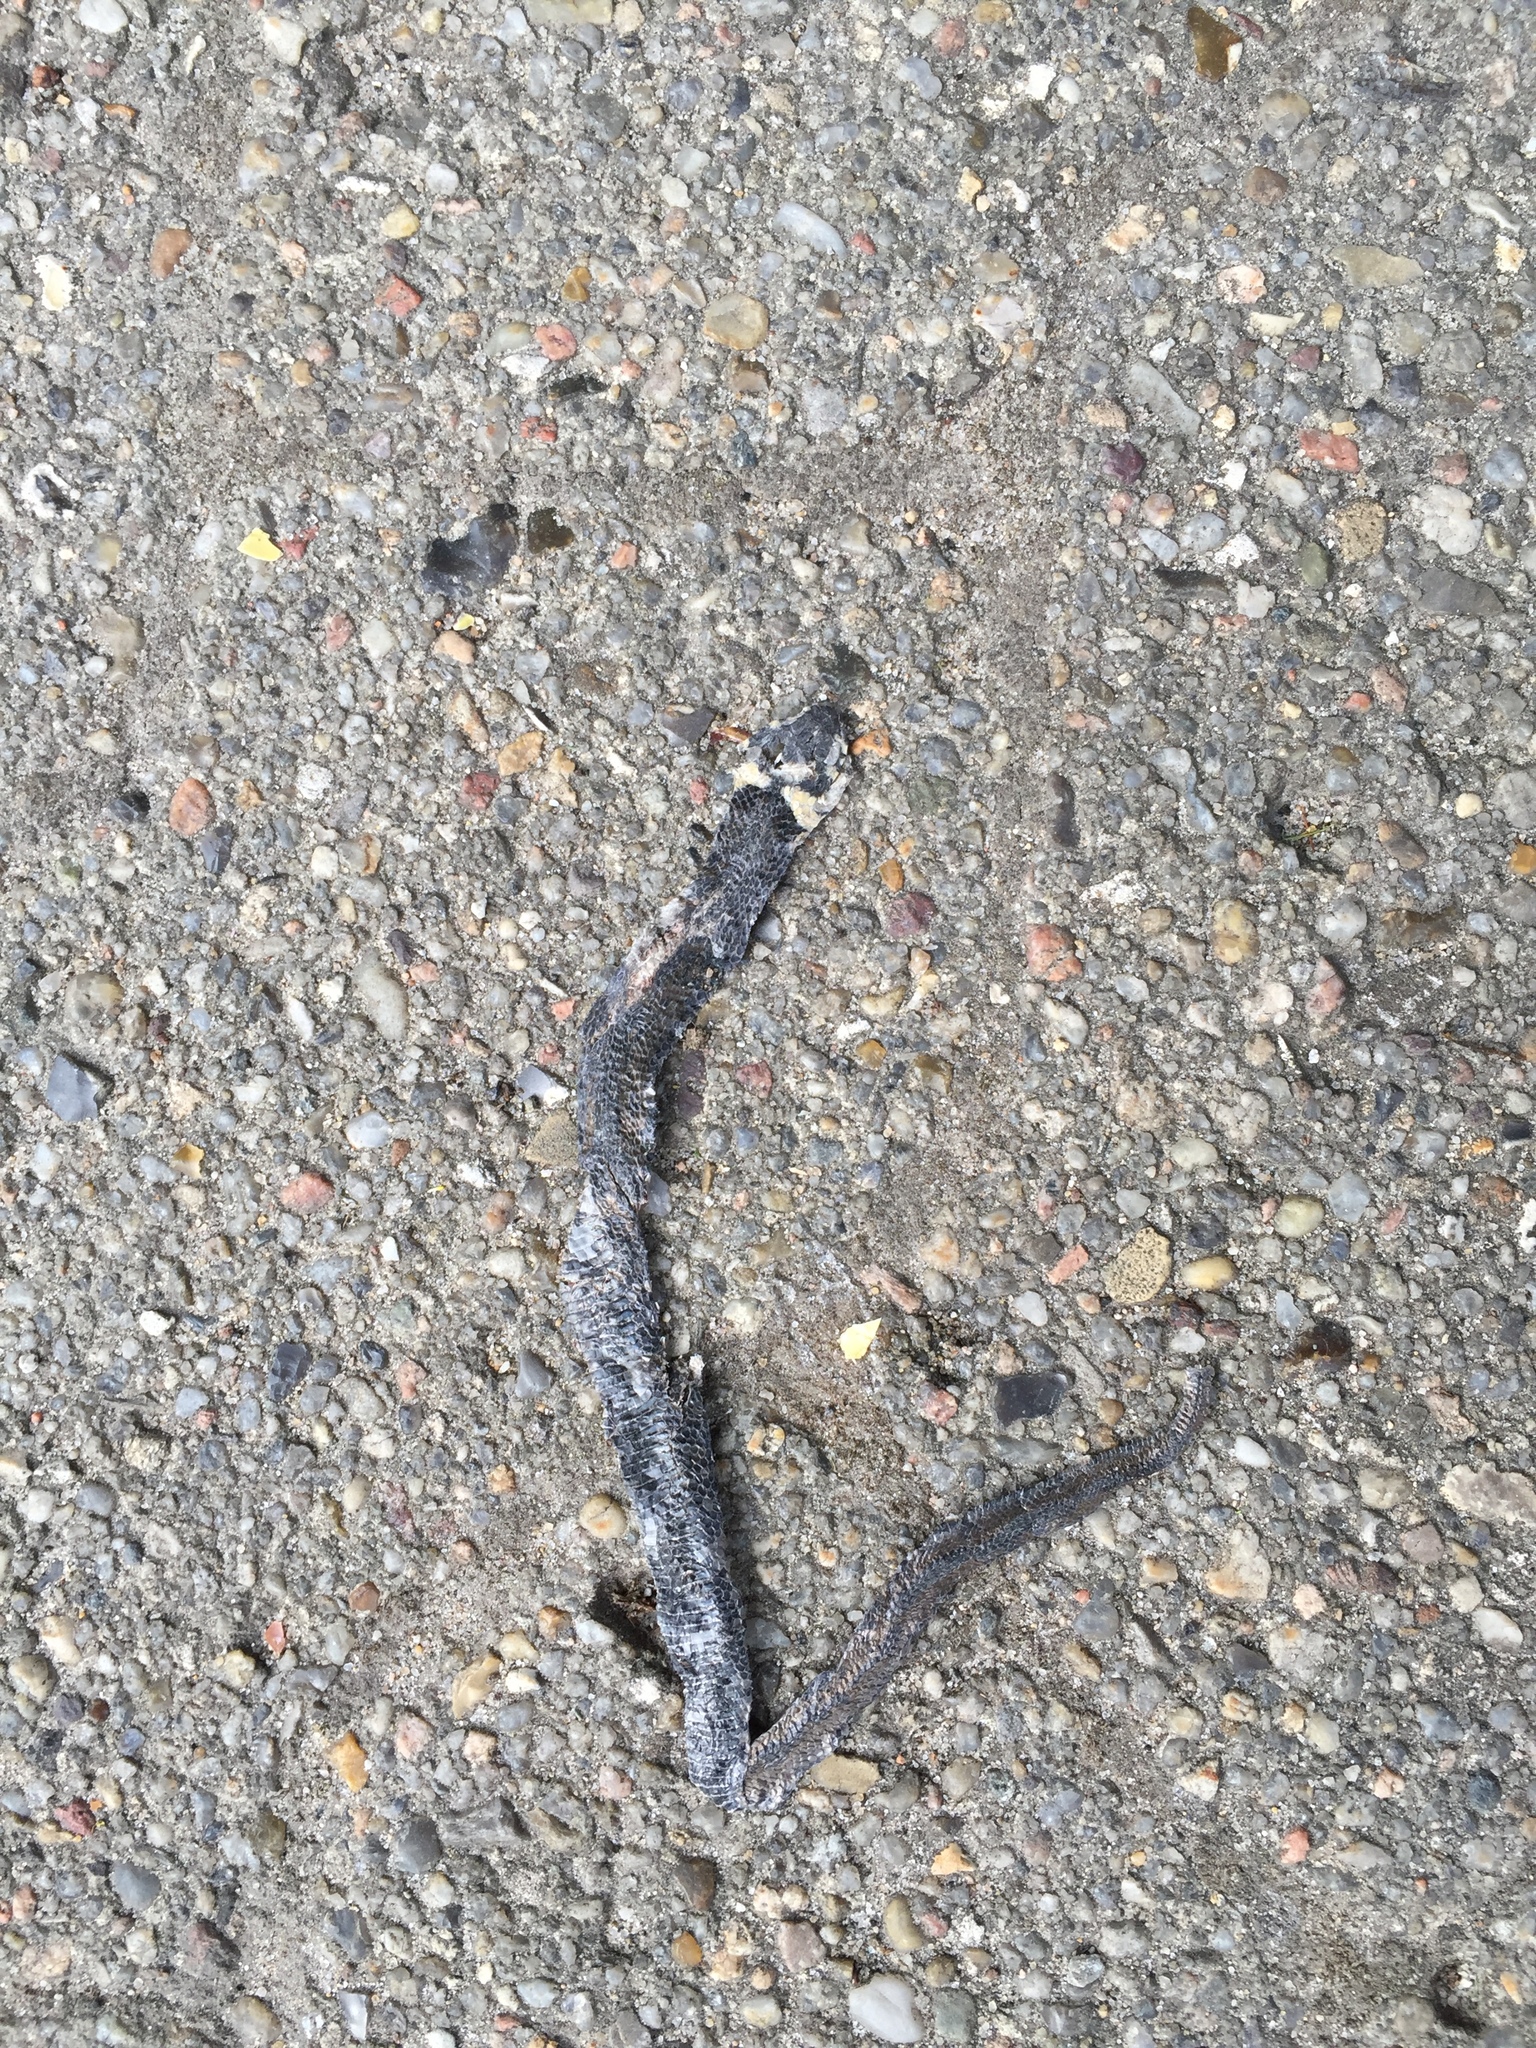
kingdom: Animalia
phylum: Chordata
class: Squamata
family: Colubridae
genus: Natrix
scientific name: Natrix natrix
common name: Grass snake
